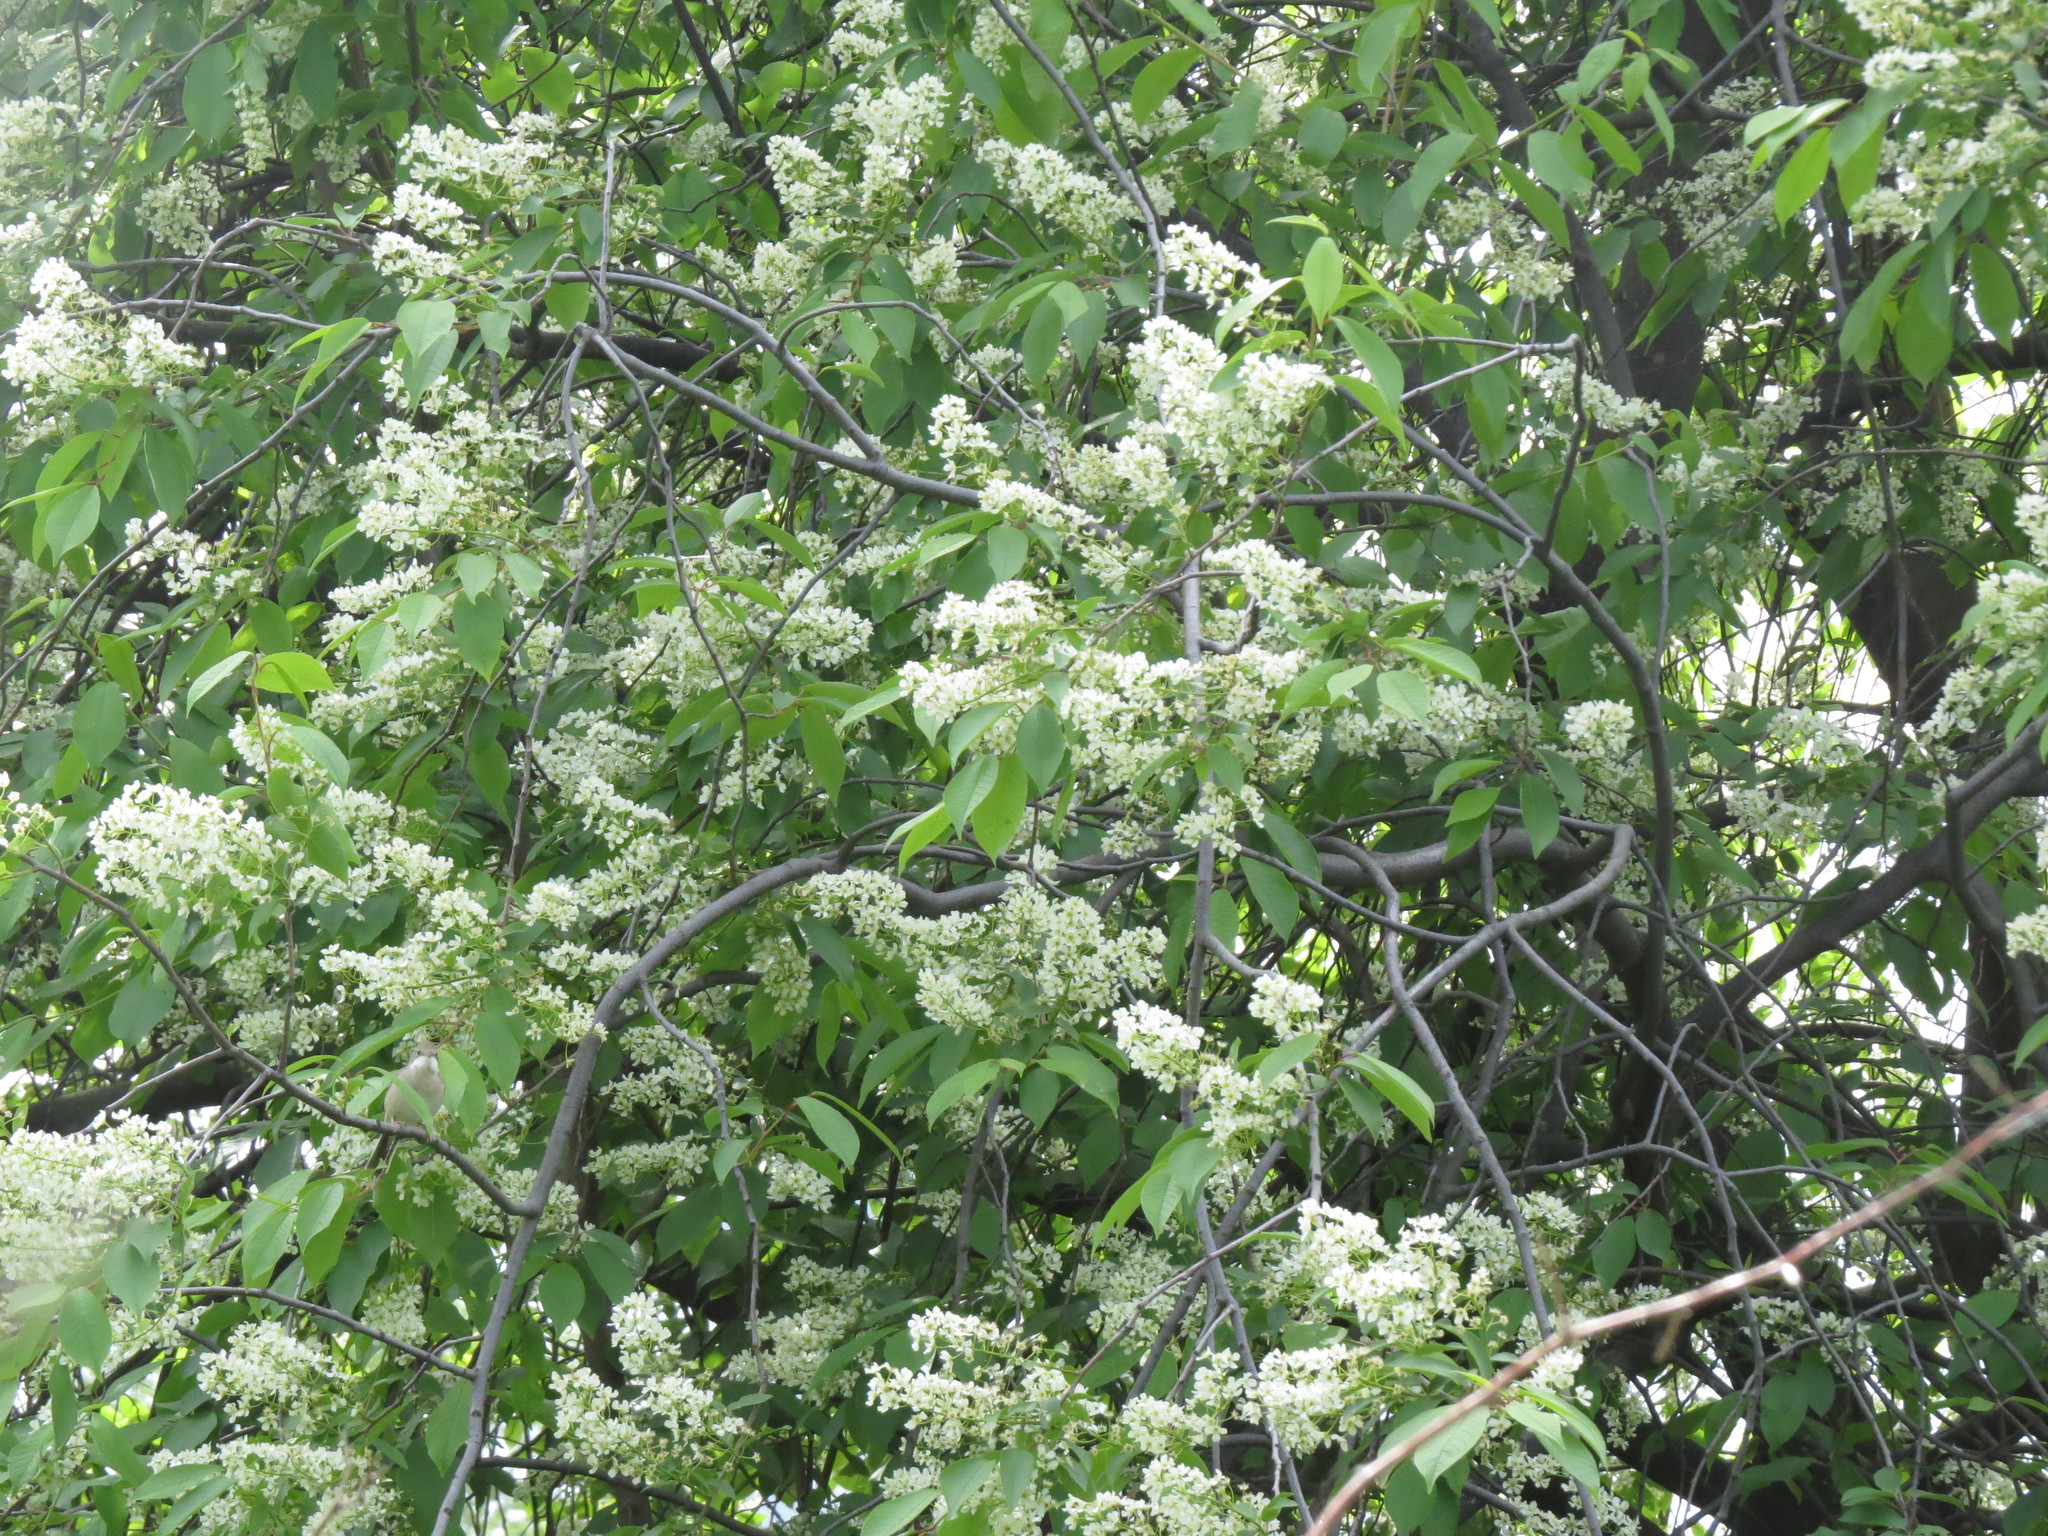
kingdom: Animalia
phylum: Chordata
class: Aves
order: Passeriformes
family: Sylviidae
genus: Sylvia
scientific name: Sylvia communis
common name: Common whitethroat
